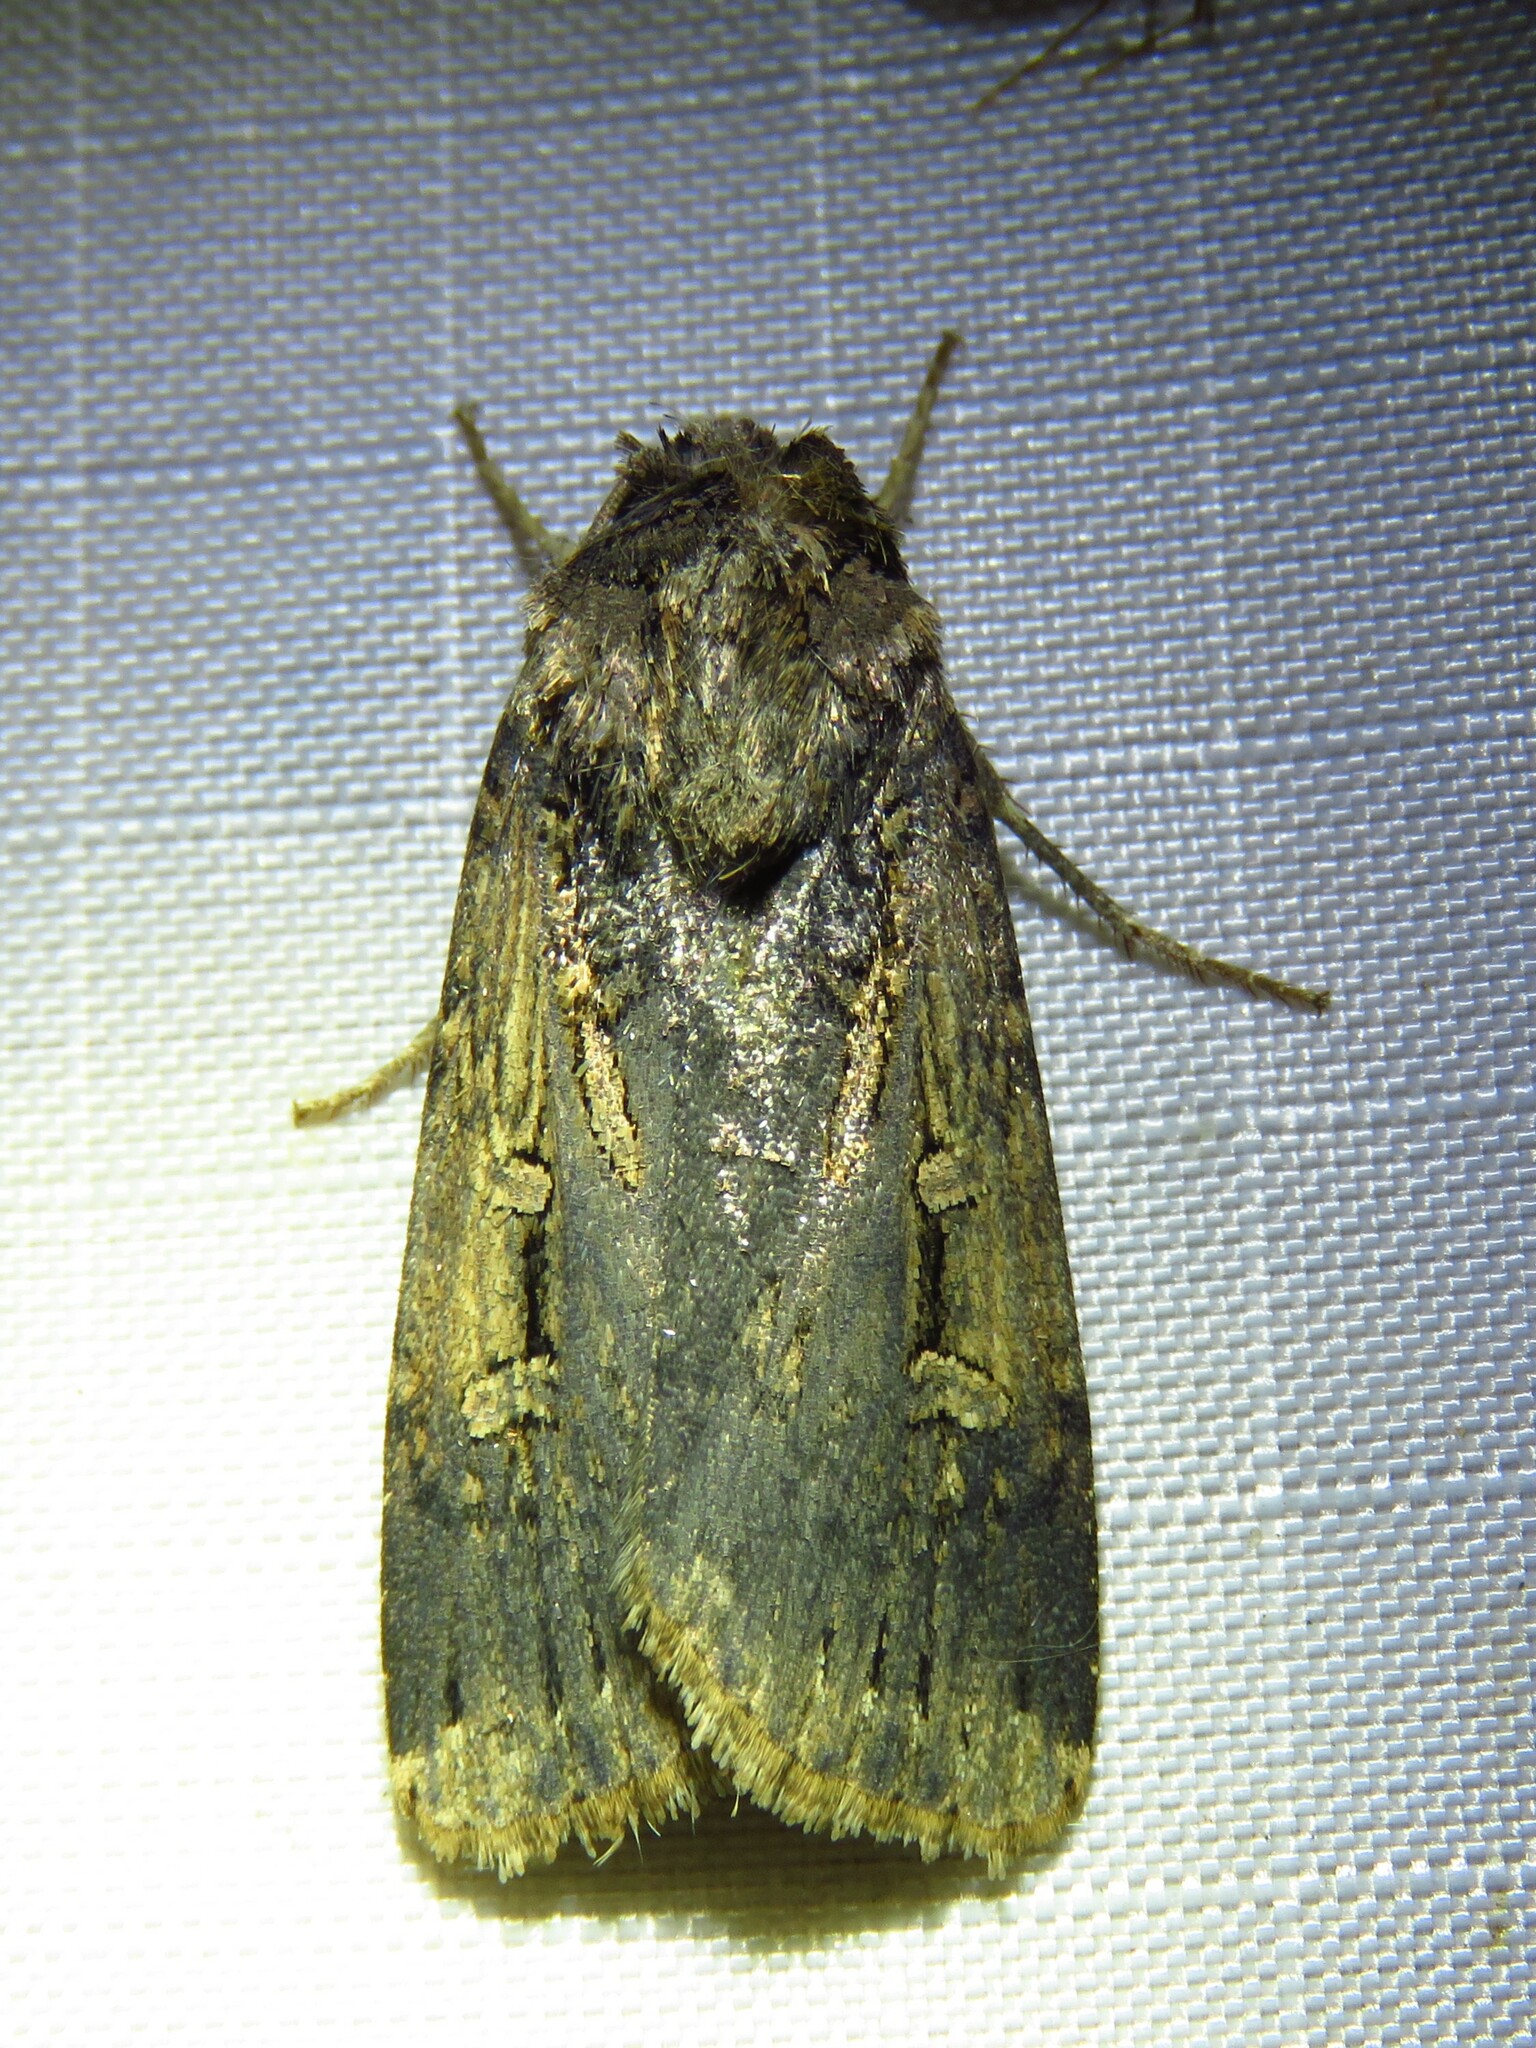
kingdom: Animalia
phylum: Arthropoda
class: Insecta
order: Lepidoptera
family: Noctuidae
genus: Feltia
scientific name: Feltia subterranea
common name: Granulate cutworm
